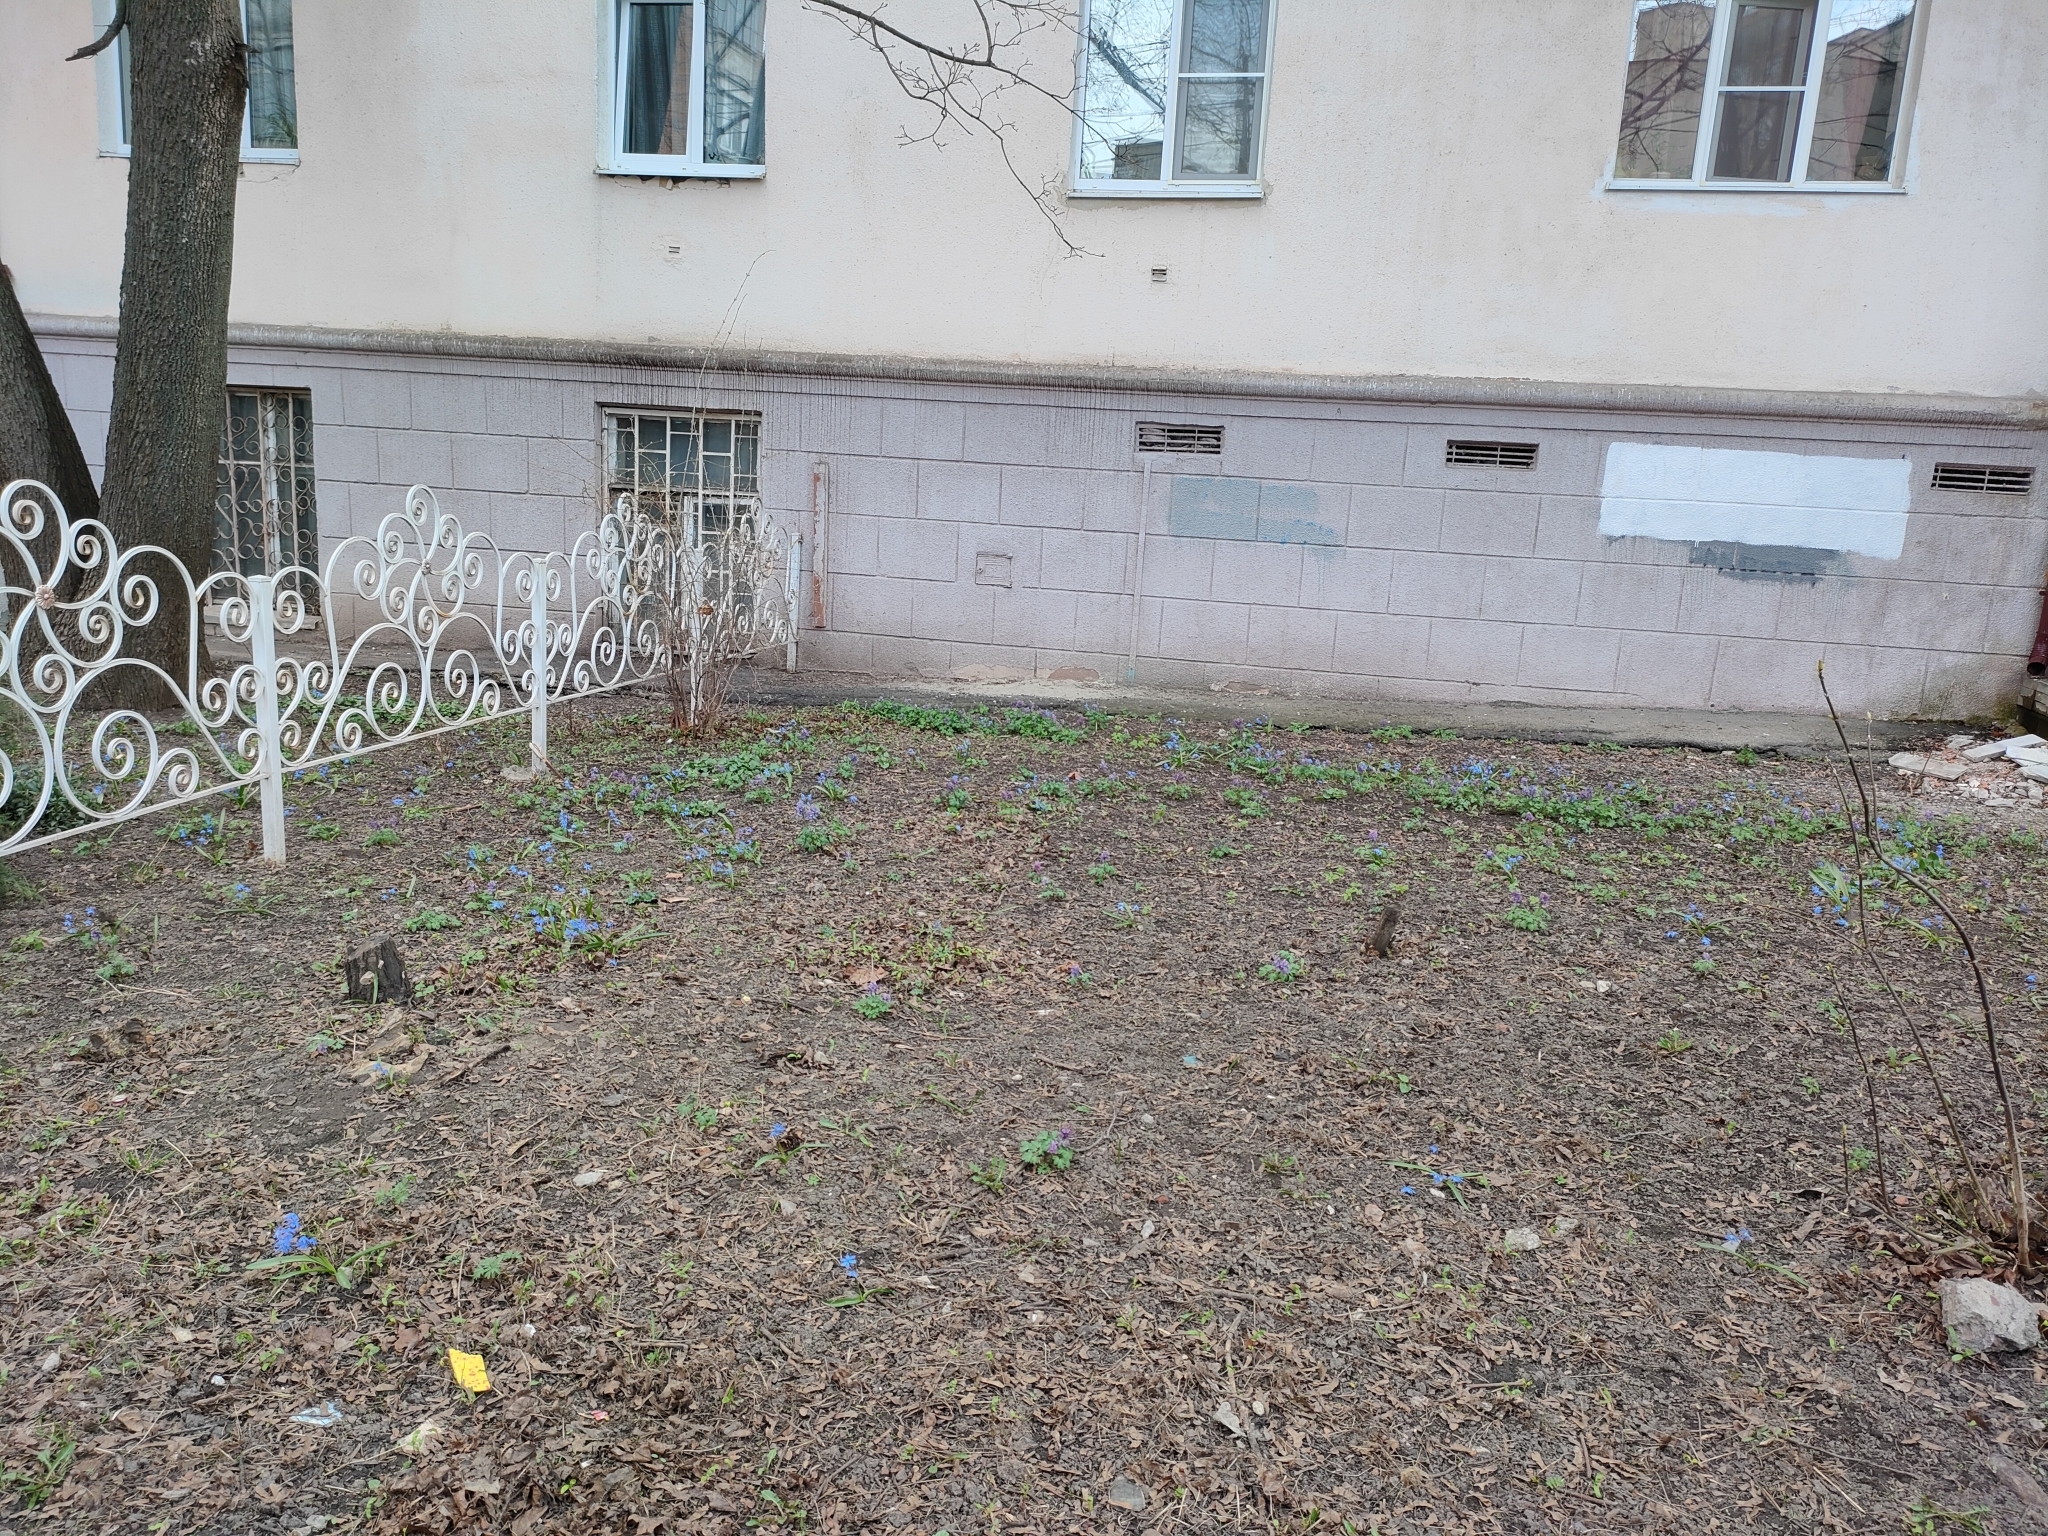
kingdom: Plantae
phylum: Tracheophyta
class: Liliopsida
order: Asparagales
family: Asparagaceae
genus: Scilla
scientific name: Scilla siberica
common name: Siberian squill
